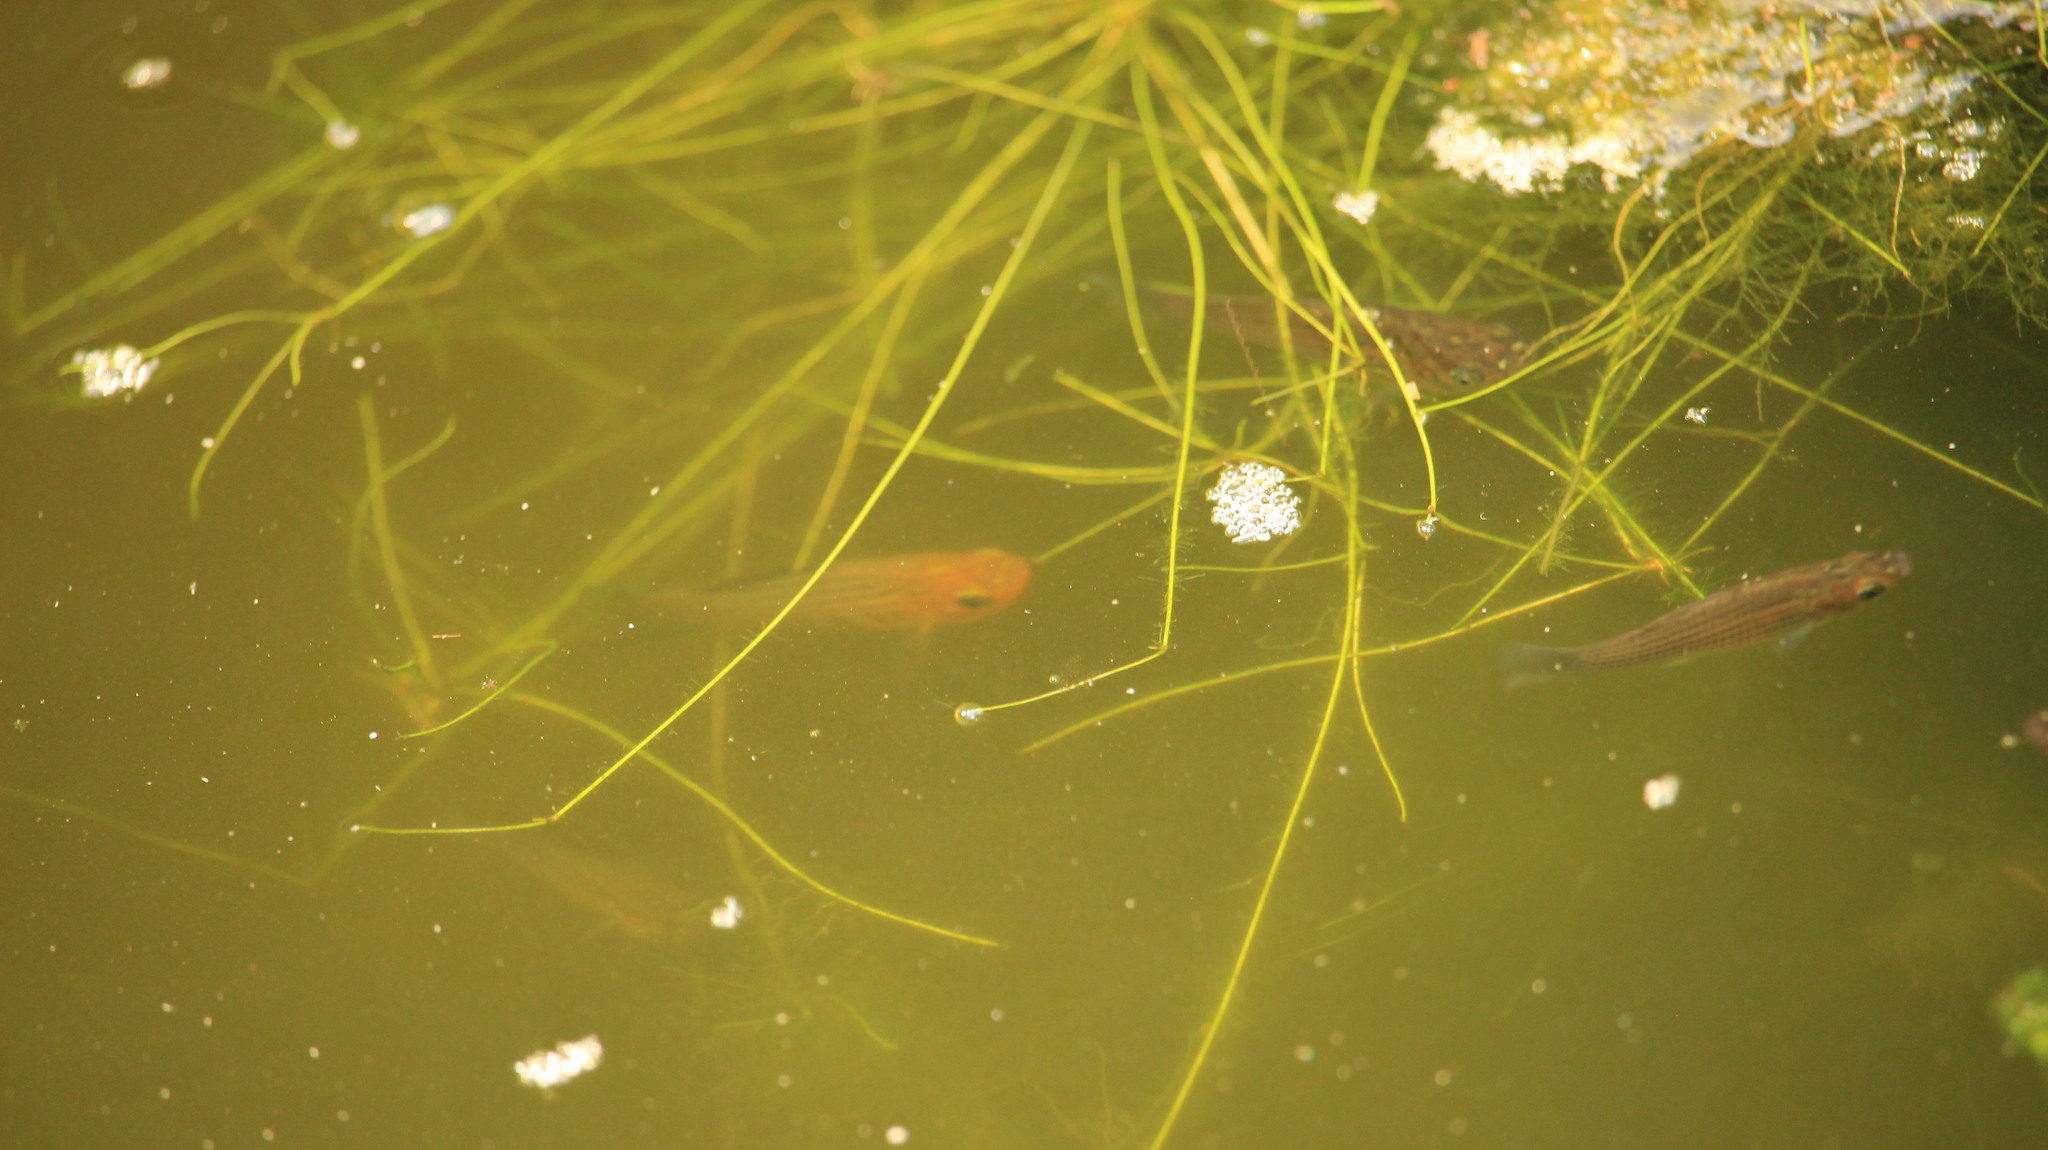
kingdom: Animalia
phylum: Chordata
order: Cyprinodontiformes
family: Poeciliidae
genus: Poecilia
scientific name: Poecilia latipinna
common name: Sailfin molly
